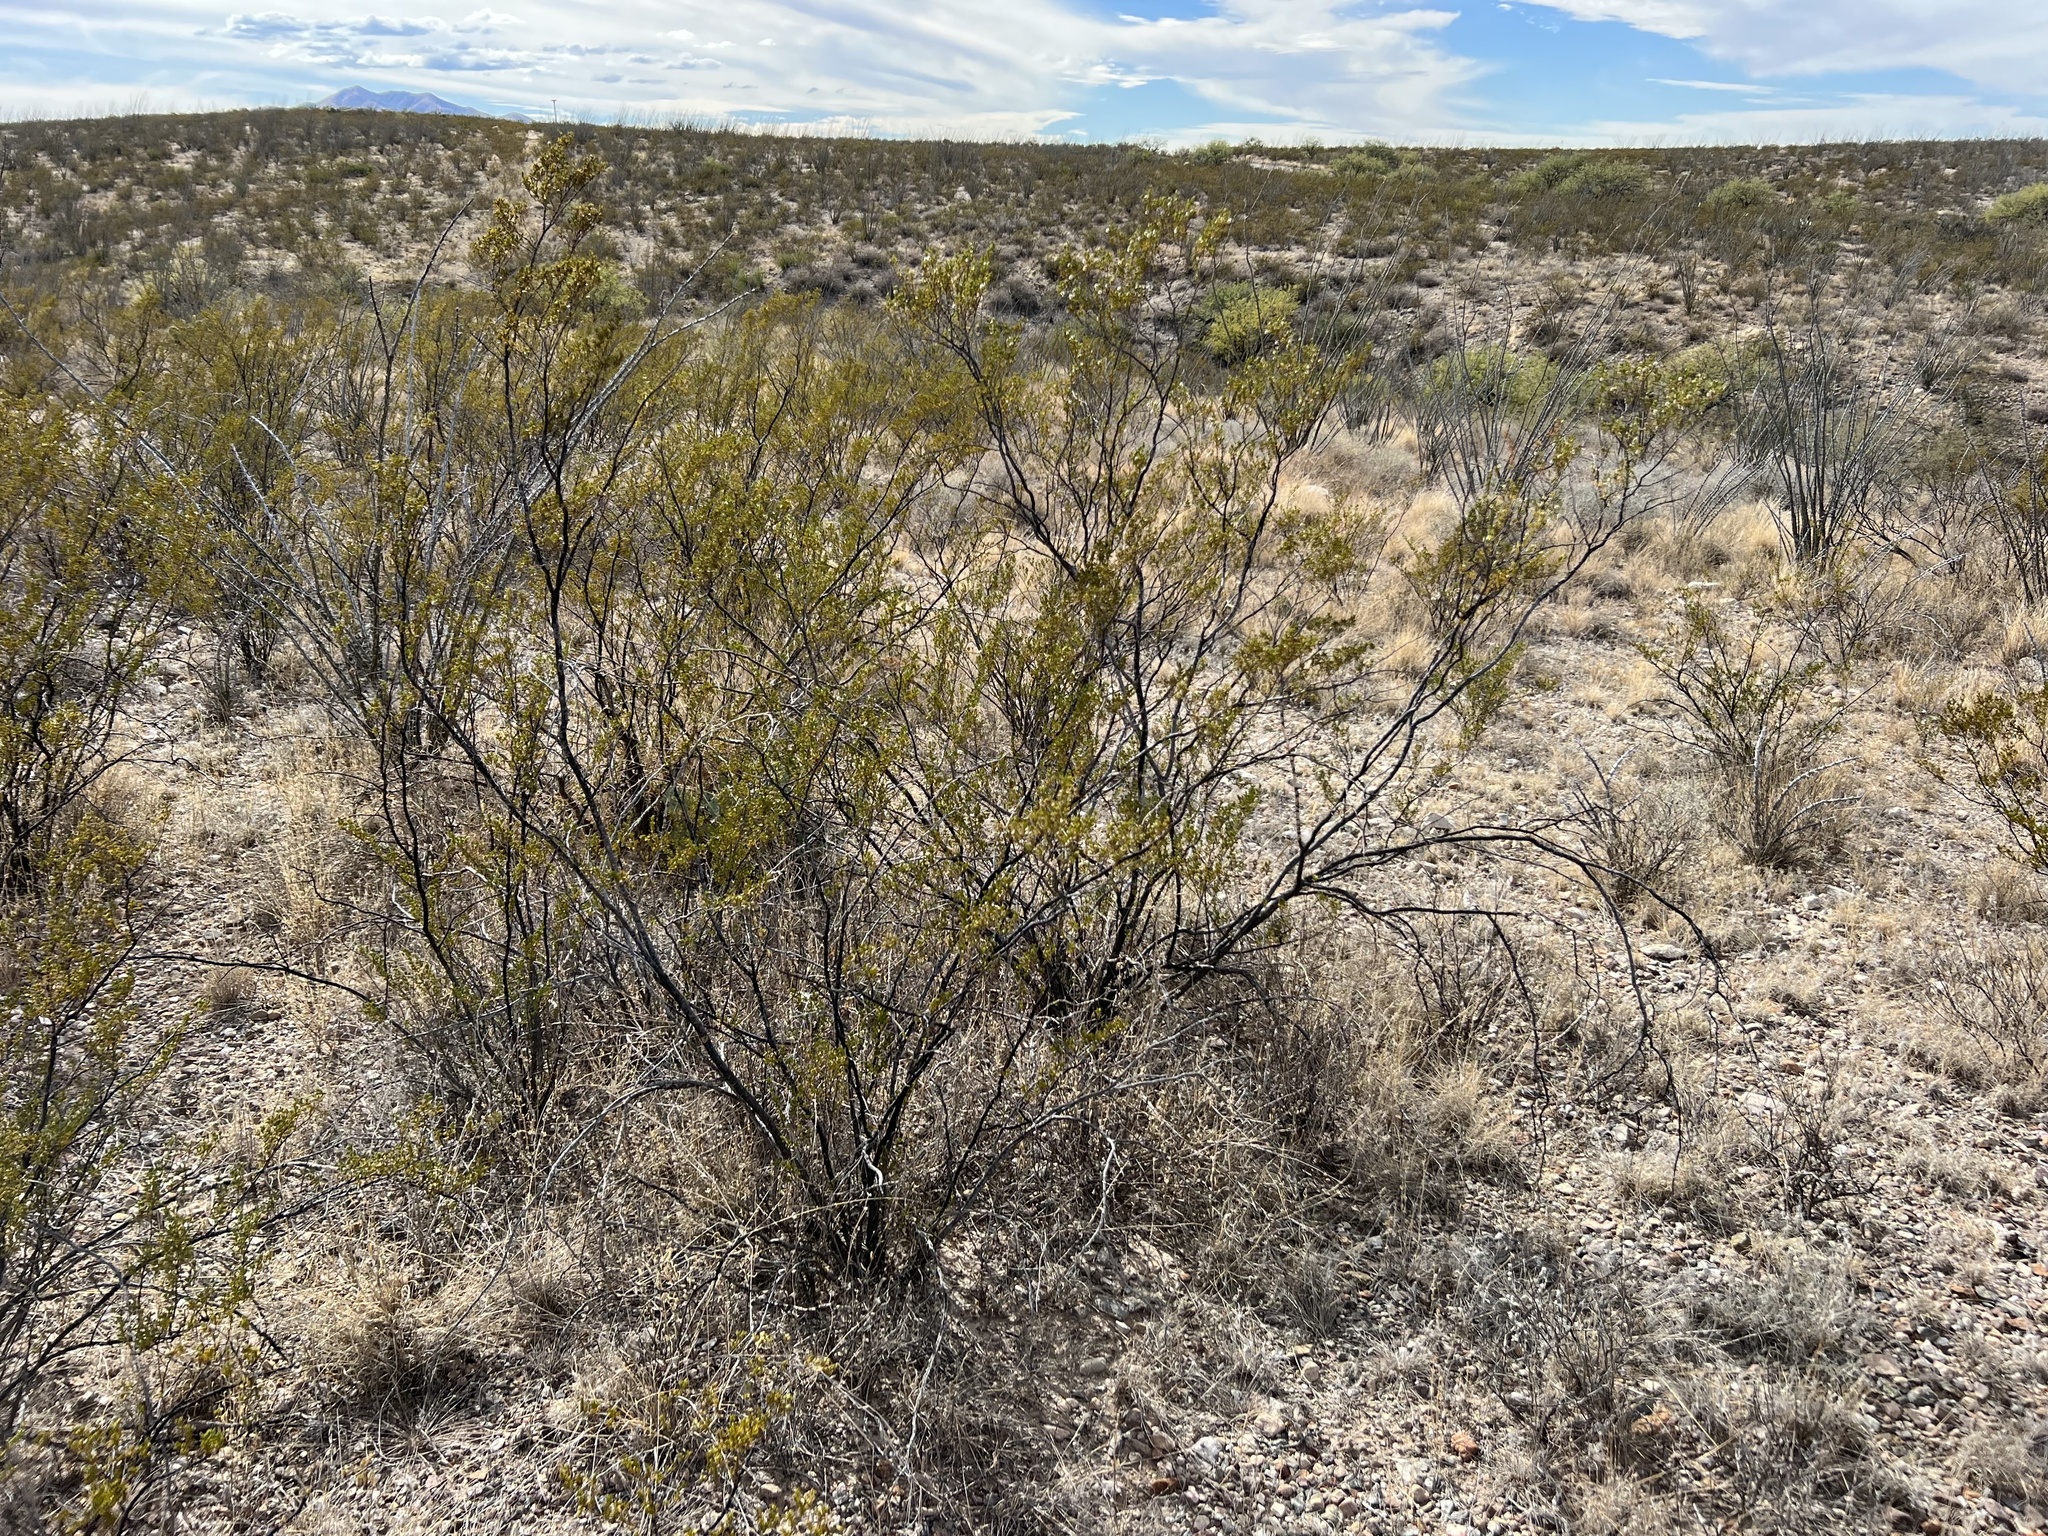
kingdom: Plantae
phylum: Tracheophyta
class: Magnoliopsida
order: Zygophyllales
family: Zygophyllaceae
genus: Larrea
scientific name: Larrea tridentata
